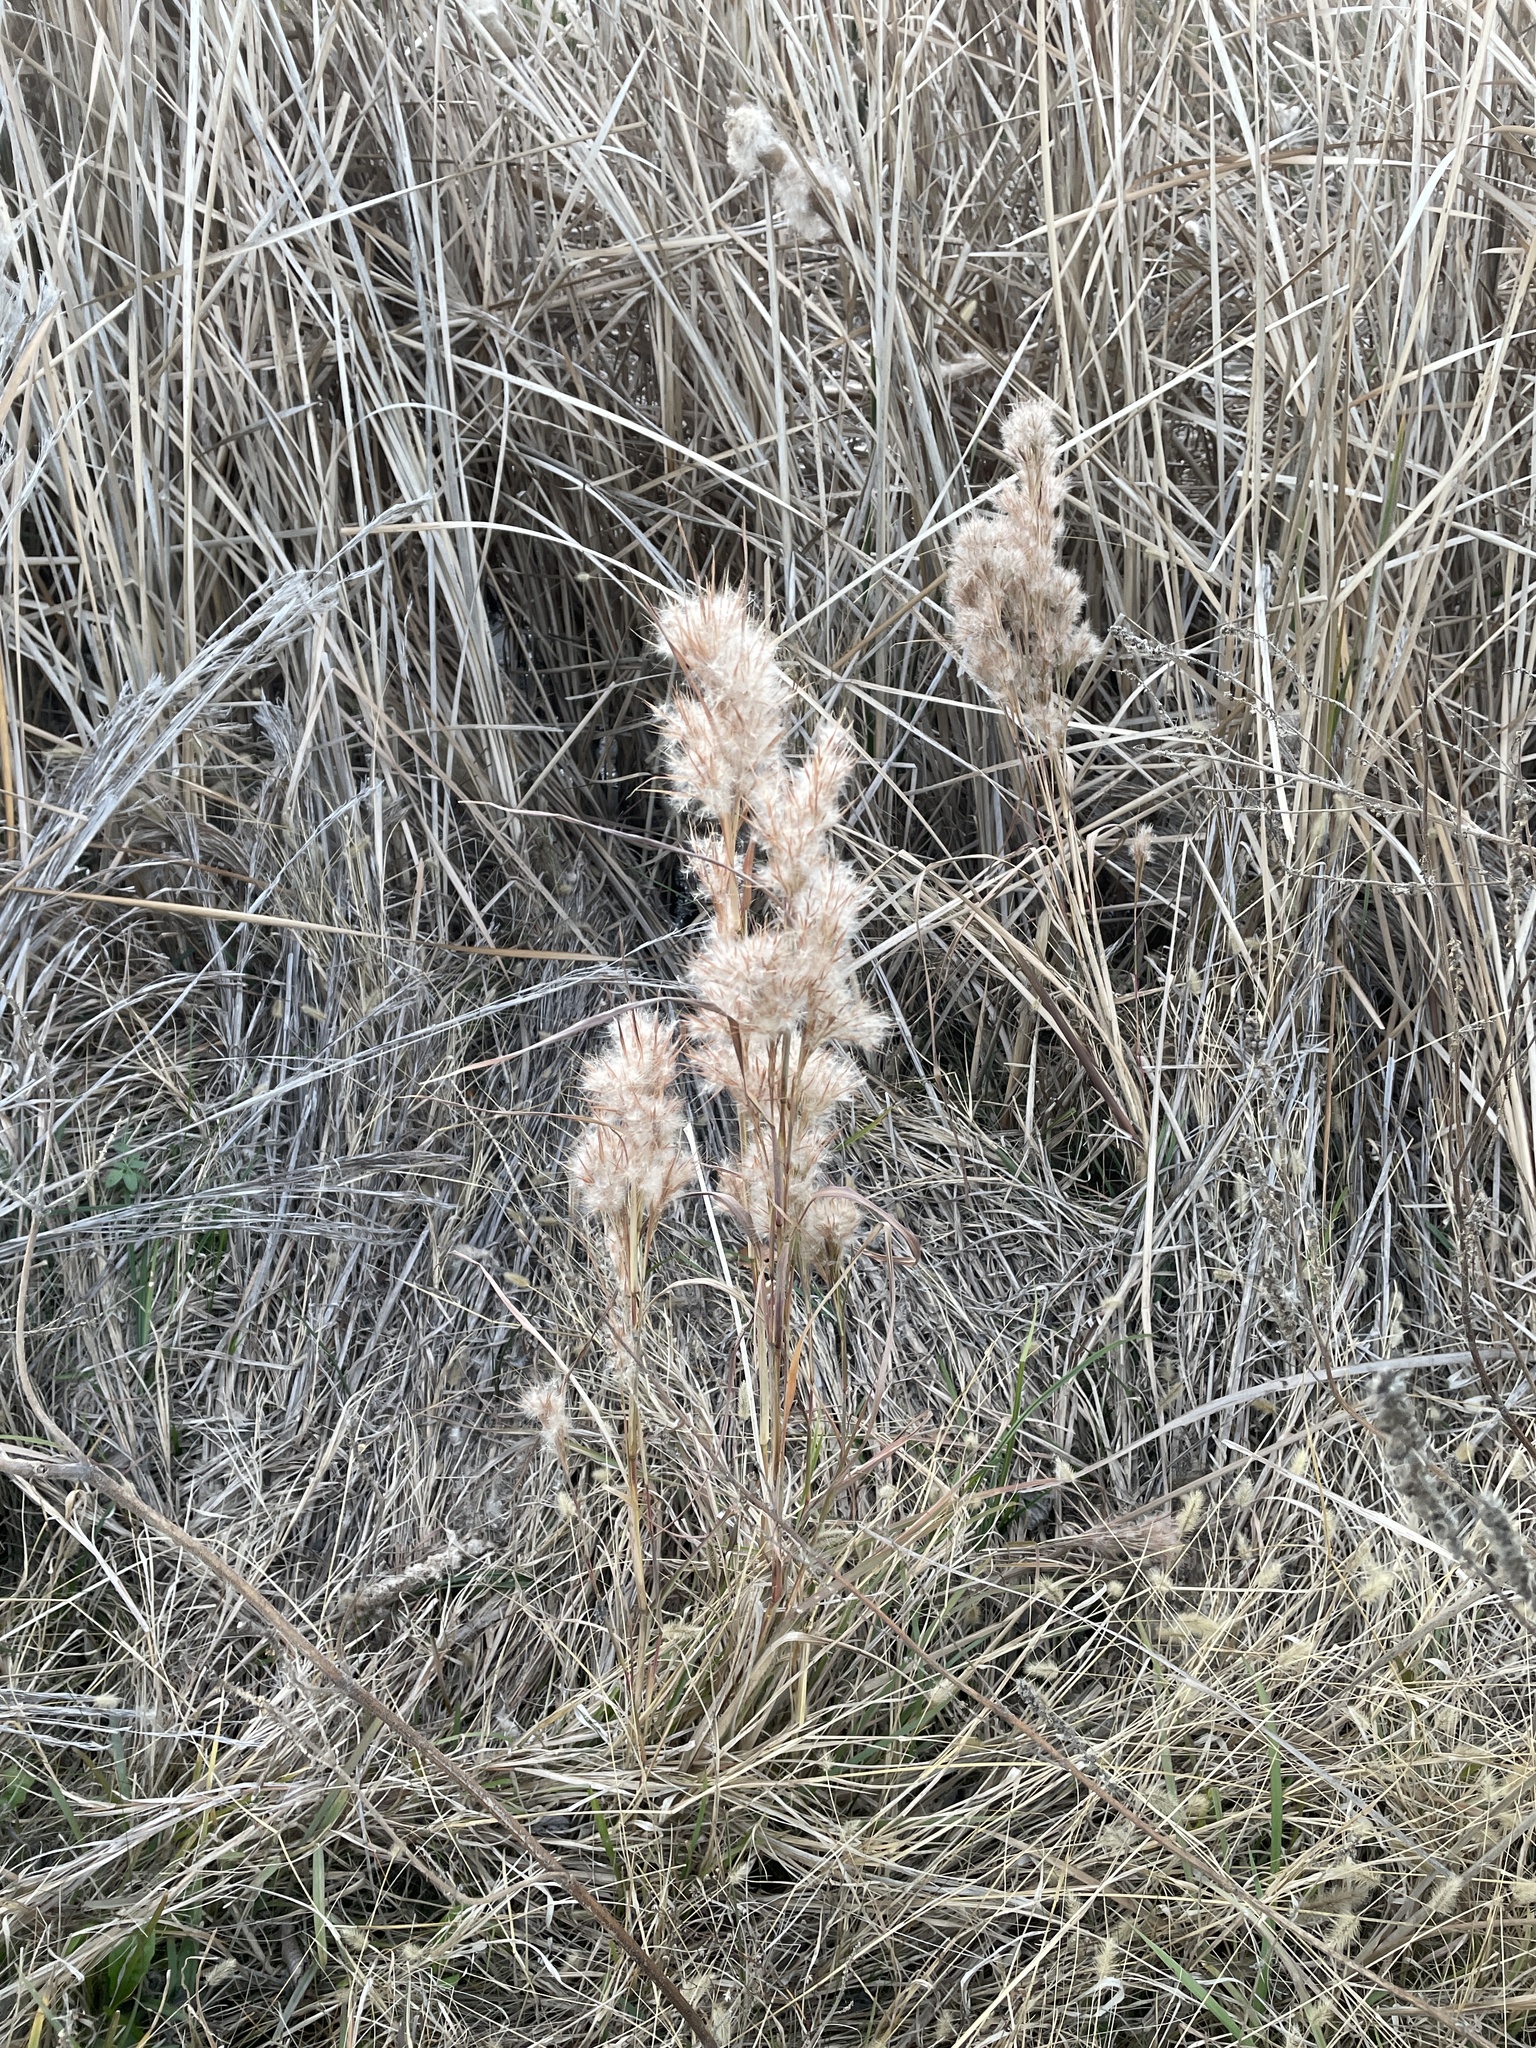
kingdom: Plantae
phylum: Tracheophyta
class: Liliopsida
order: Poales
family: Poaceae
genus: Andropogon
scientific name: Andropogon tenuispatheus
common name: Bushy bluestem
